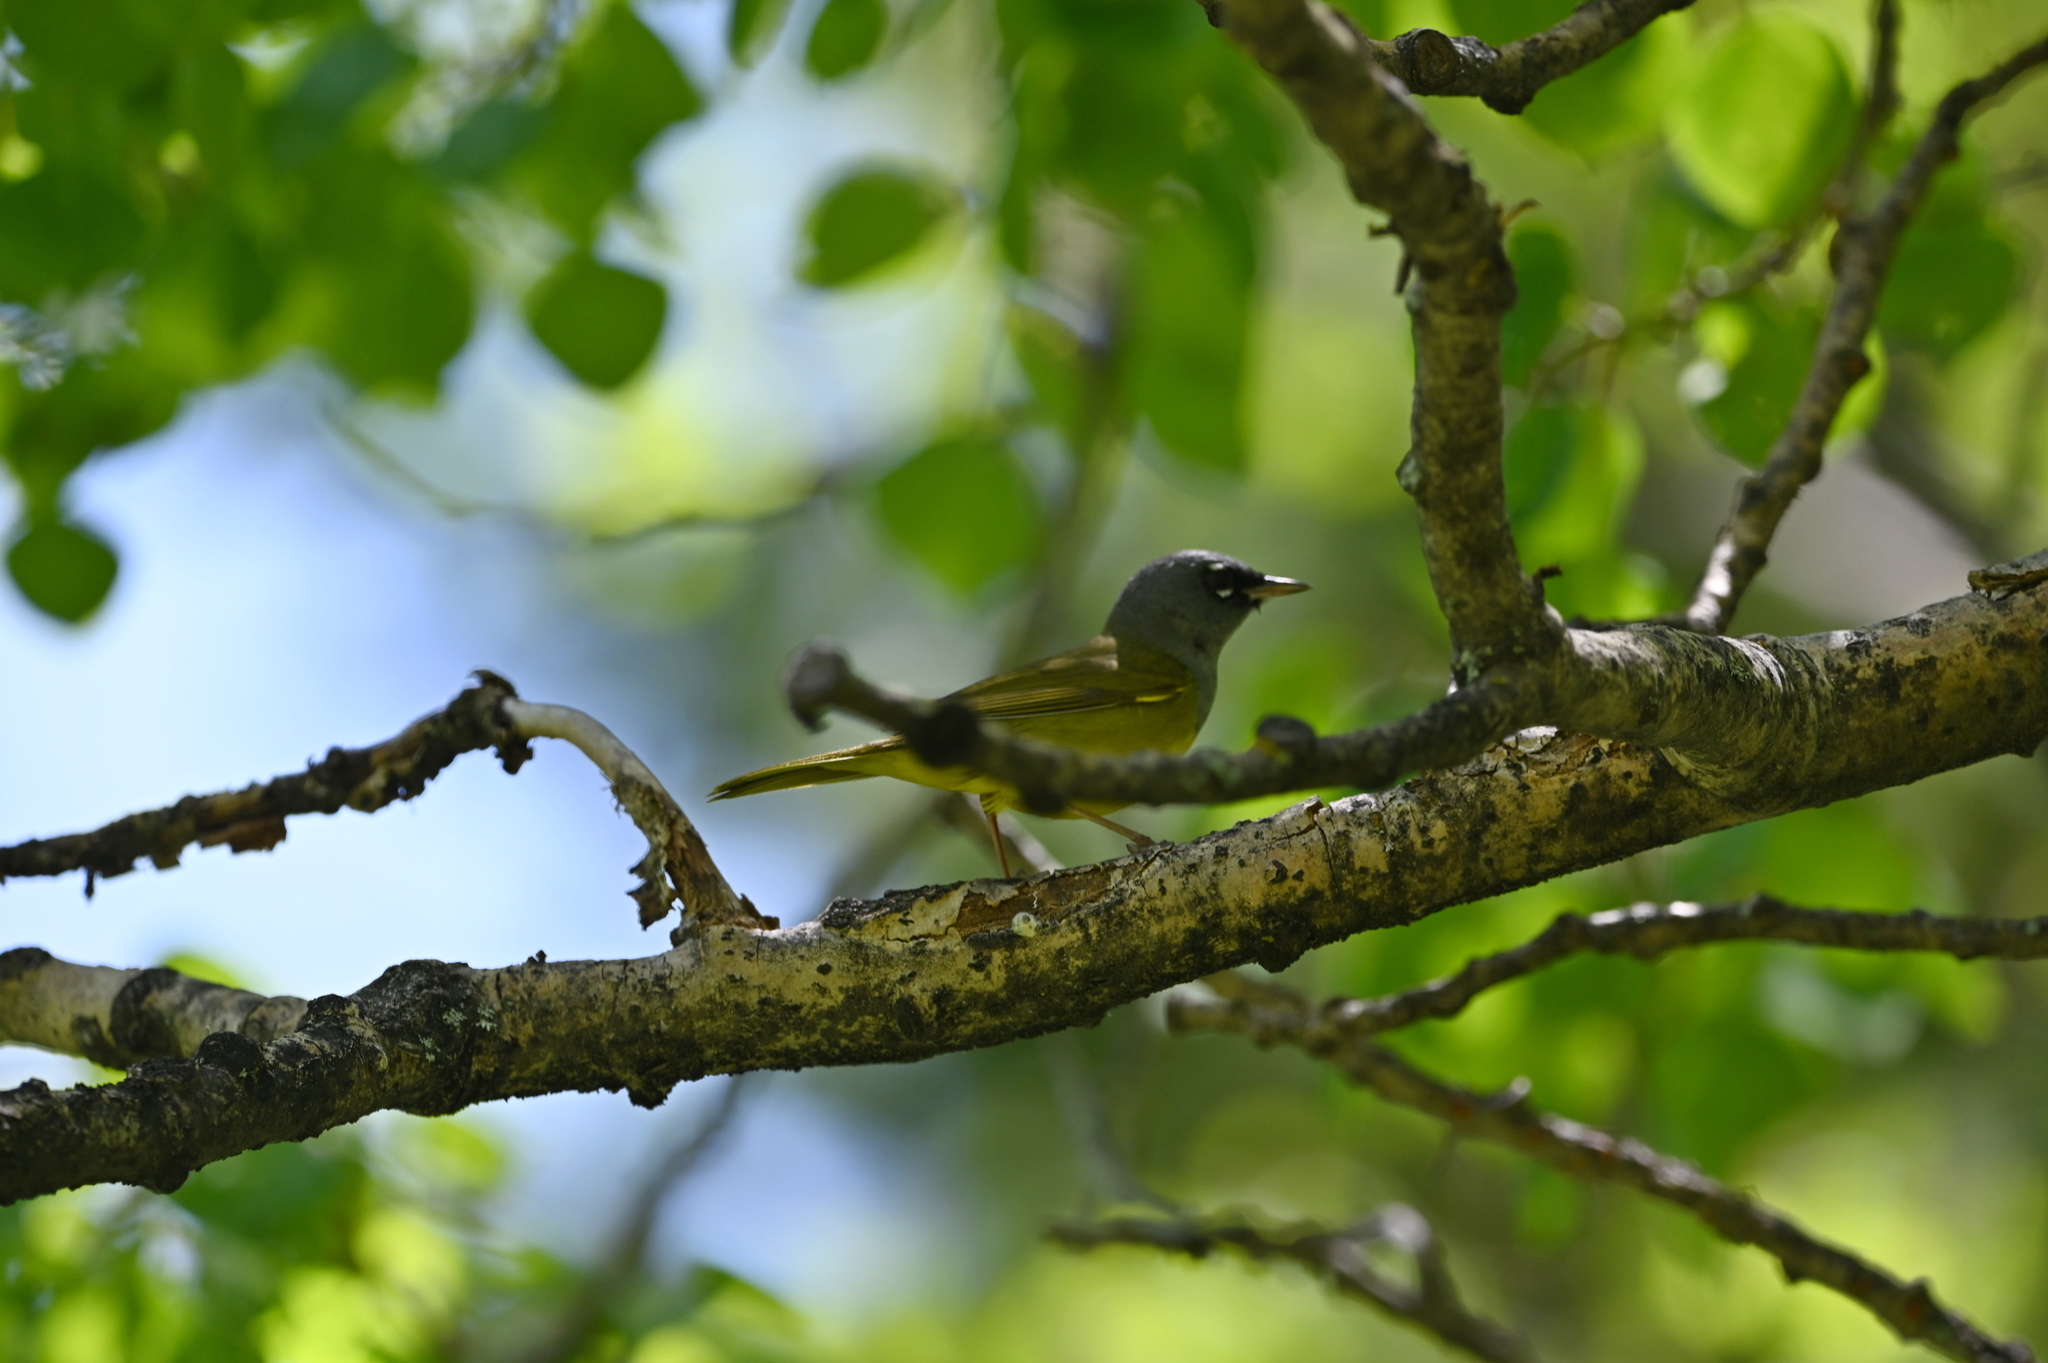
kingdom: Animalia
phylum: Chordata
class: Aves
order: Passeriformes
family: Parulidae
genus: Geothlypis
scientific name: Geothlypis tolmiei
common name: Macgillivray's warbler
